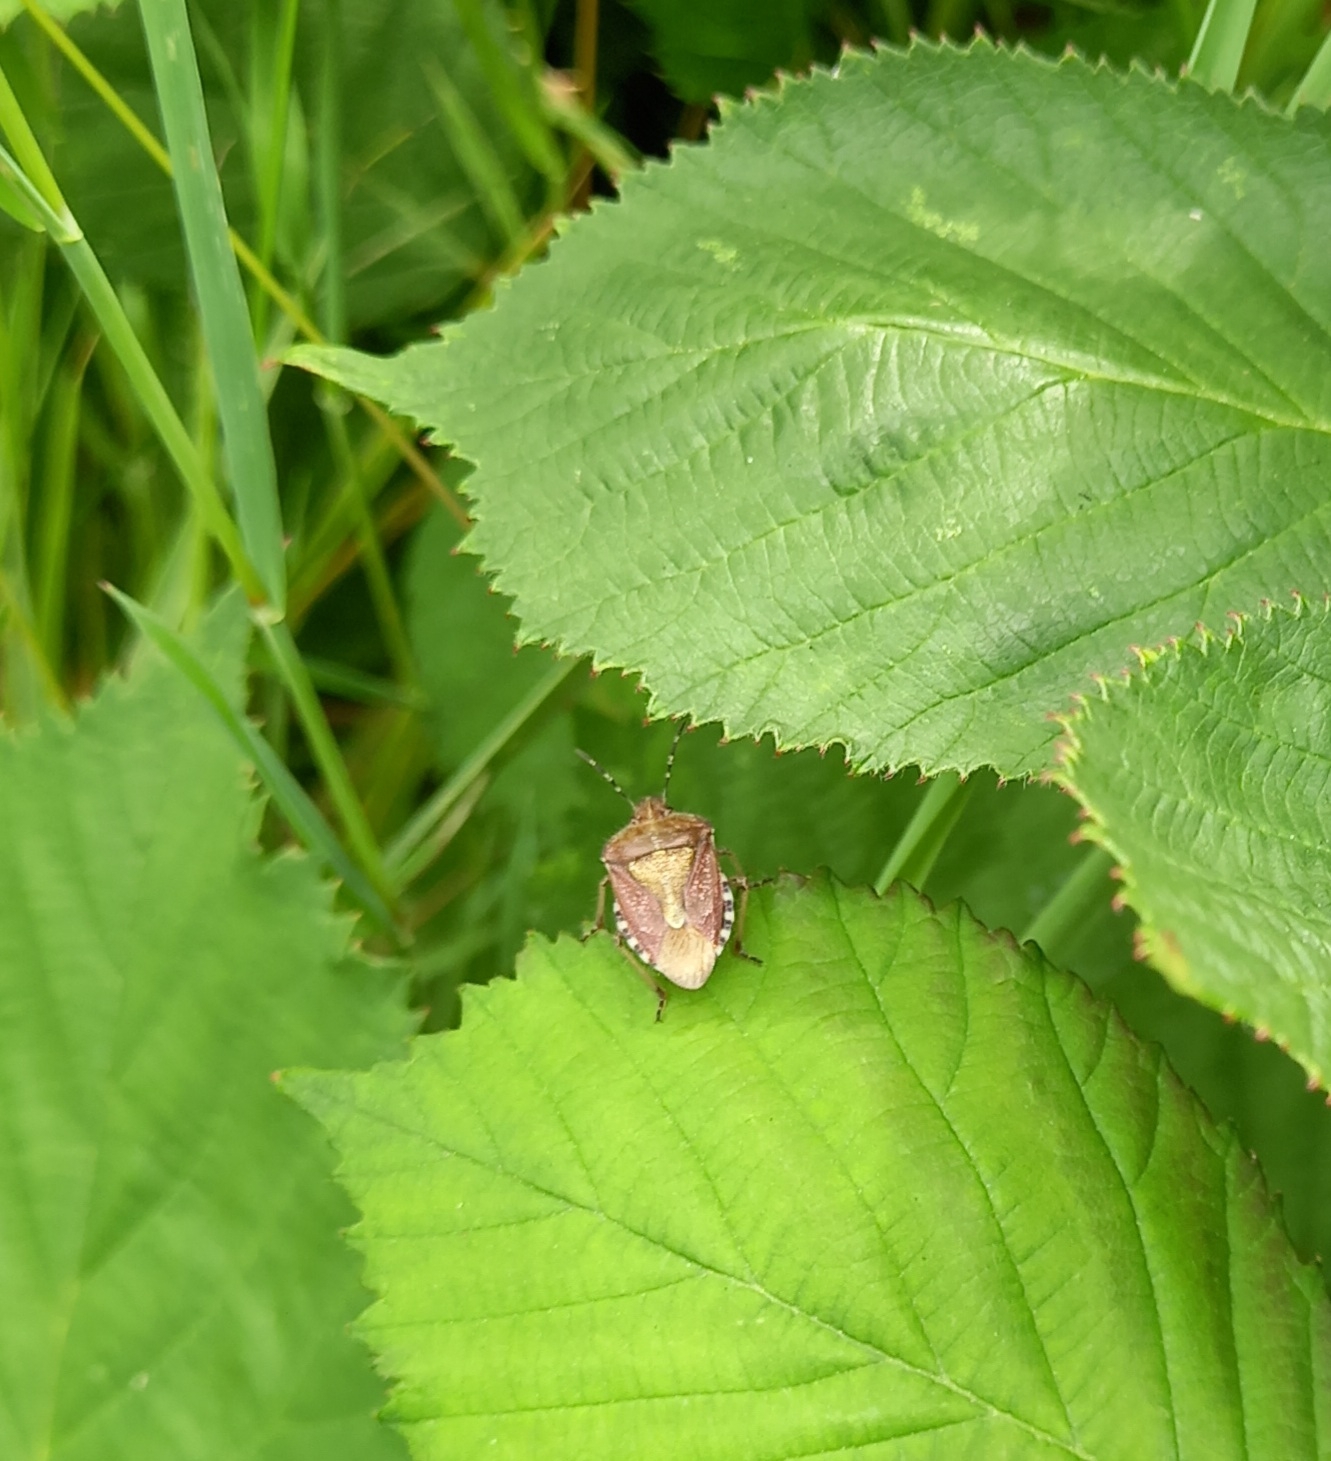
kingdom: Animalia
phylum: Arthropoda
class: Insecta
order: Hemiptera
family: Pentatomidae
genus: Dolycoris
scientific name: Dolycoris baccarum
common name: Sloe bug
